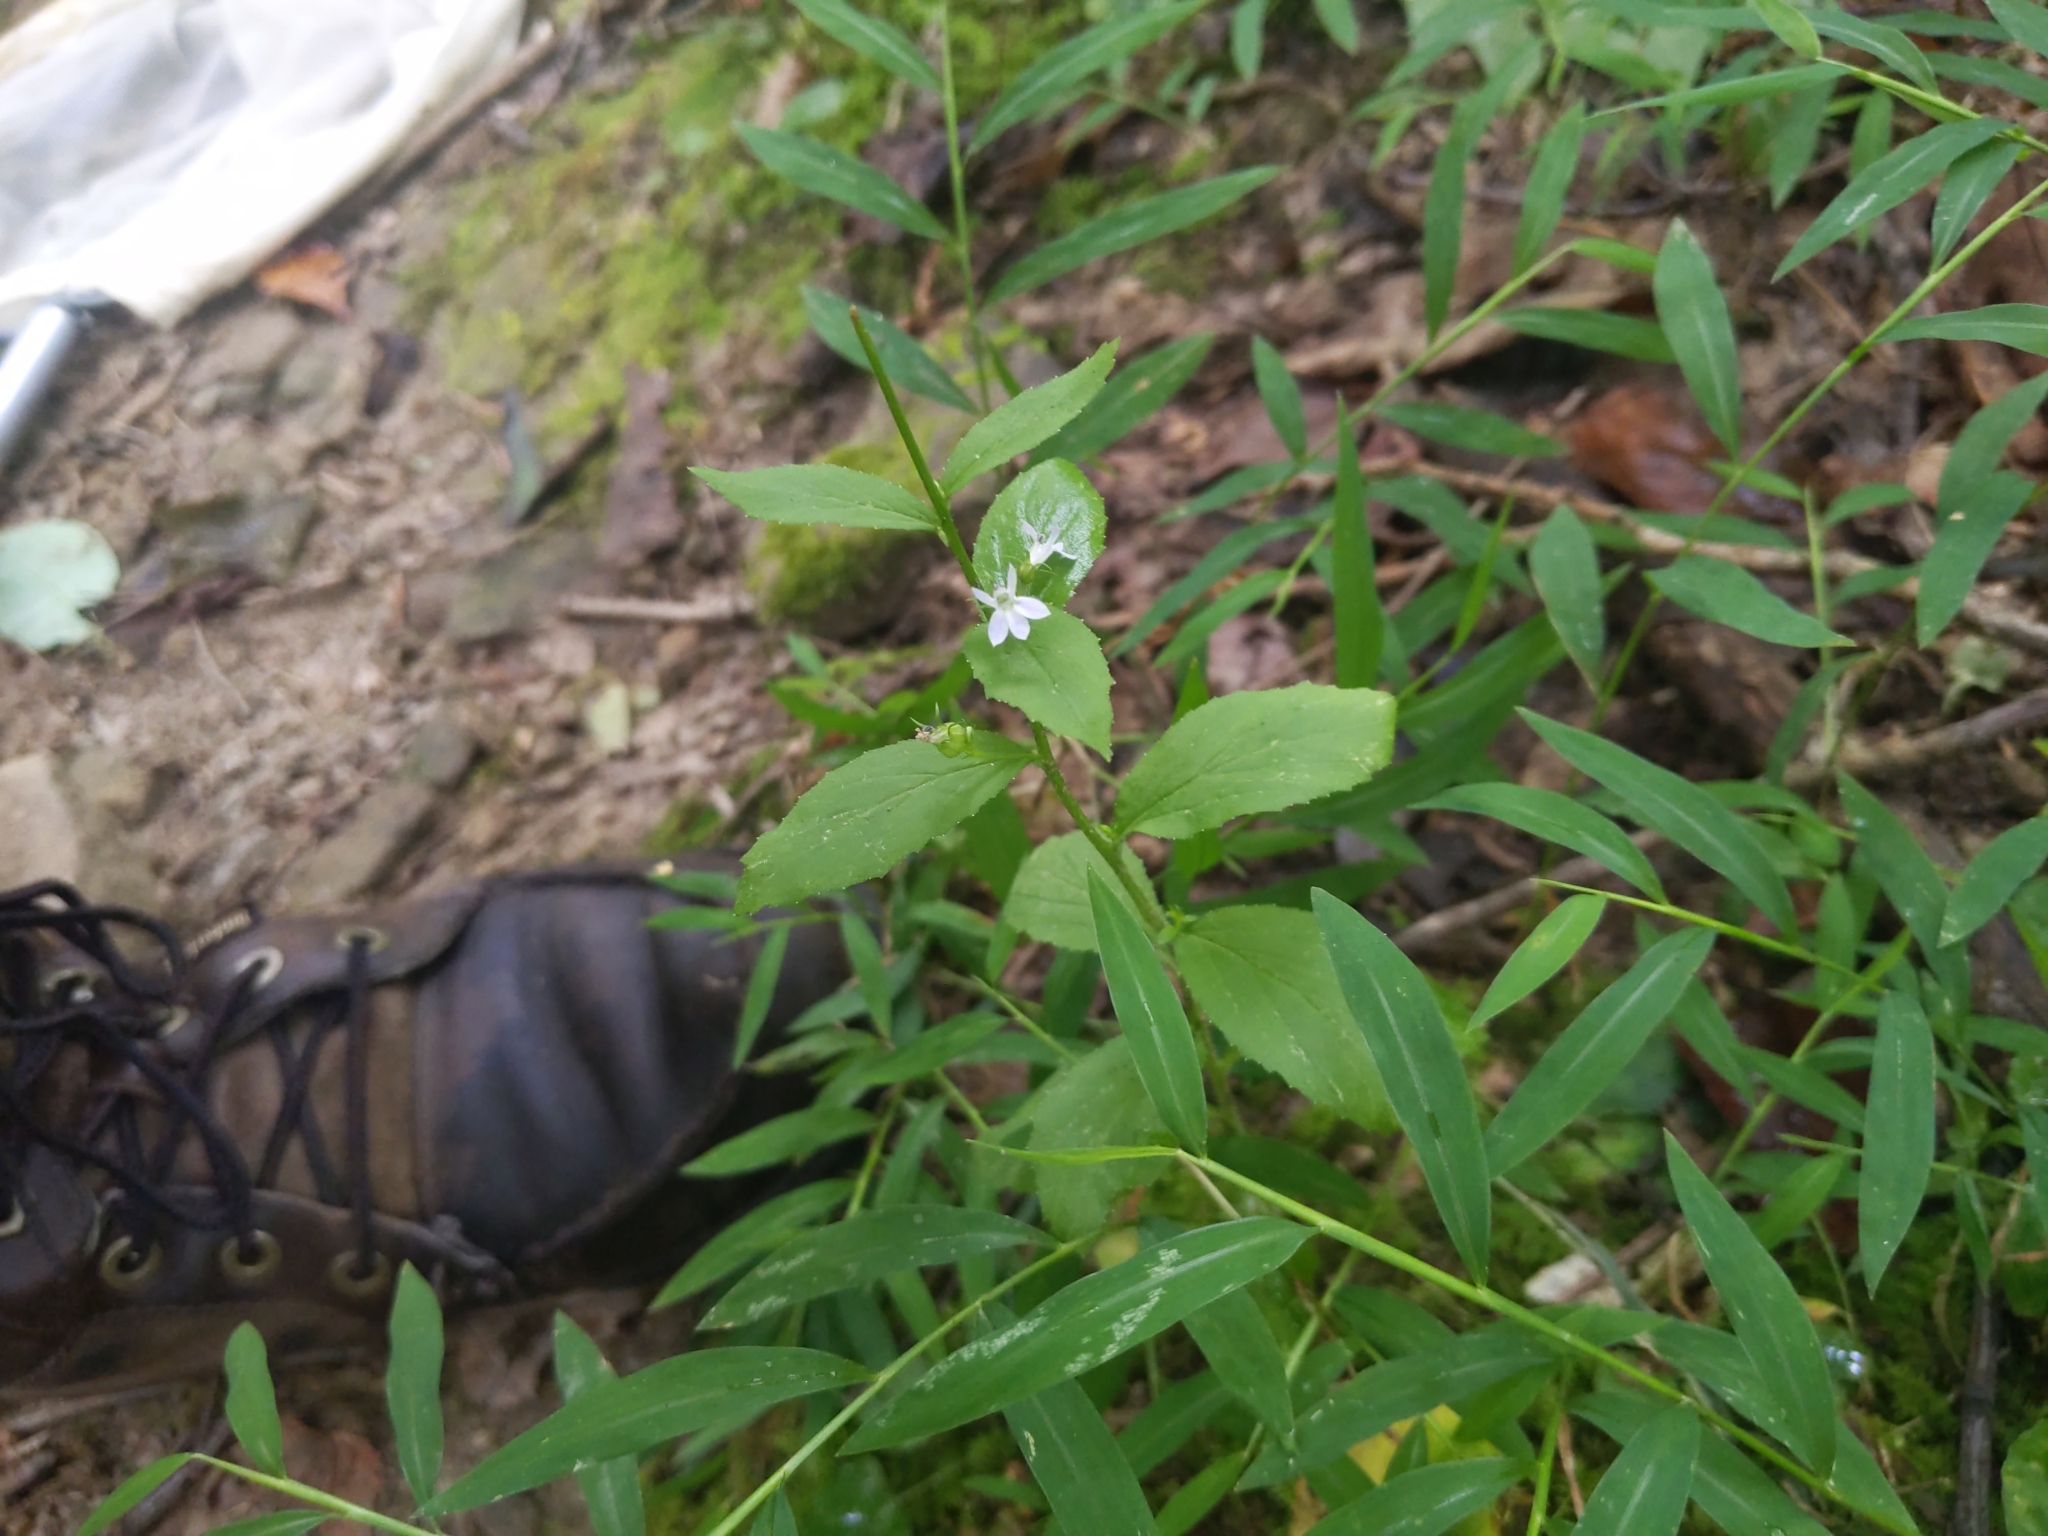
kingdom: Plantae
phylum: Tracheophyta
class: Magnoliopsida
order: Asterales
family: Campanulaceae
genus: Lobelia
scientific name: Lobelia inflata
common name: Indian tobacco
